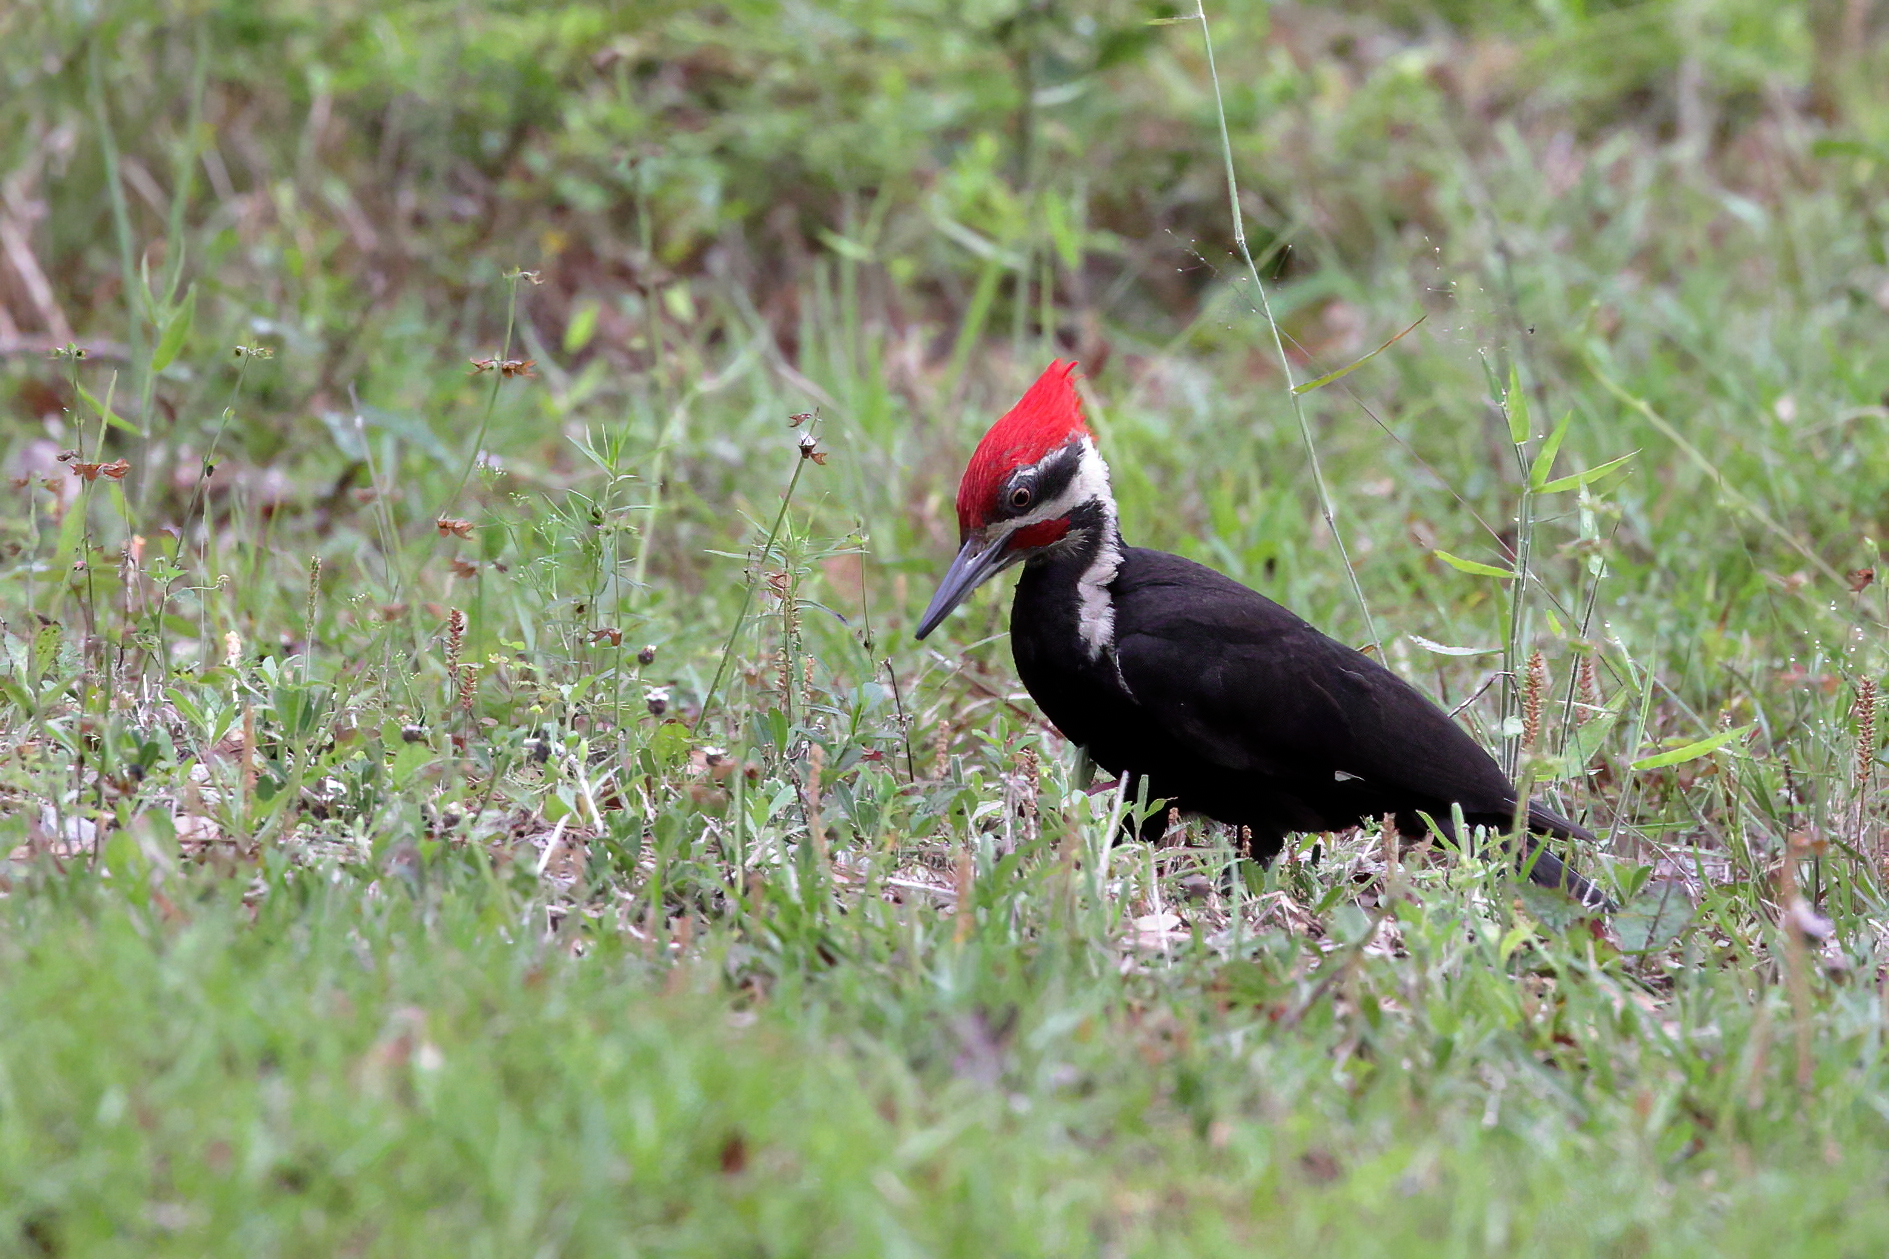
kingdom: Animalia
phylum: Chordata
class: Aves
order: Piciformes
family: Picidae
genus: Dryocopus
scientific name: Dryocopus pileatus
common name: Pileated woodpecker
